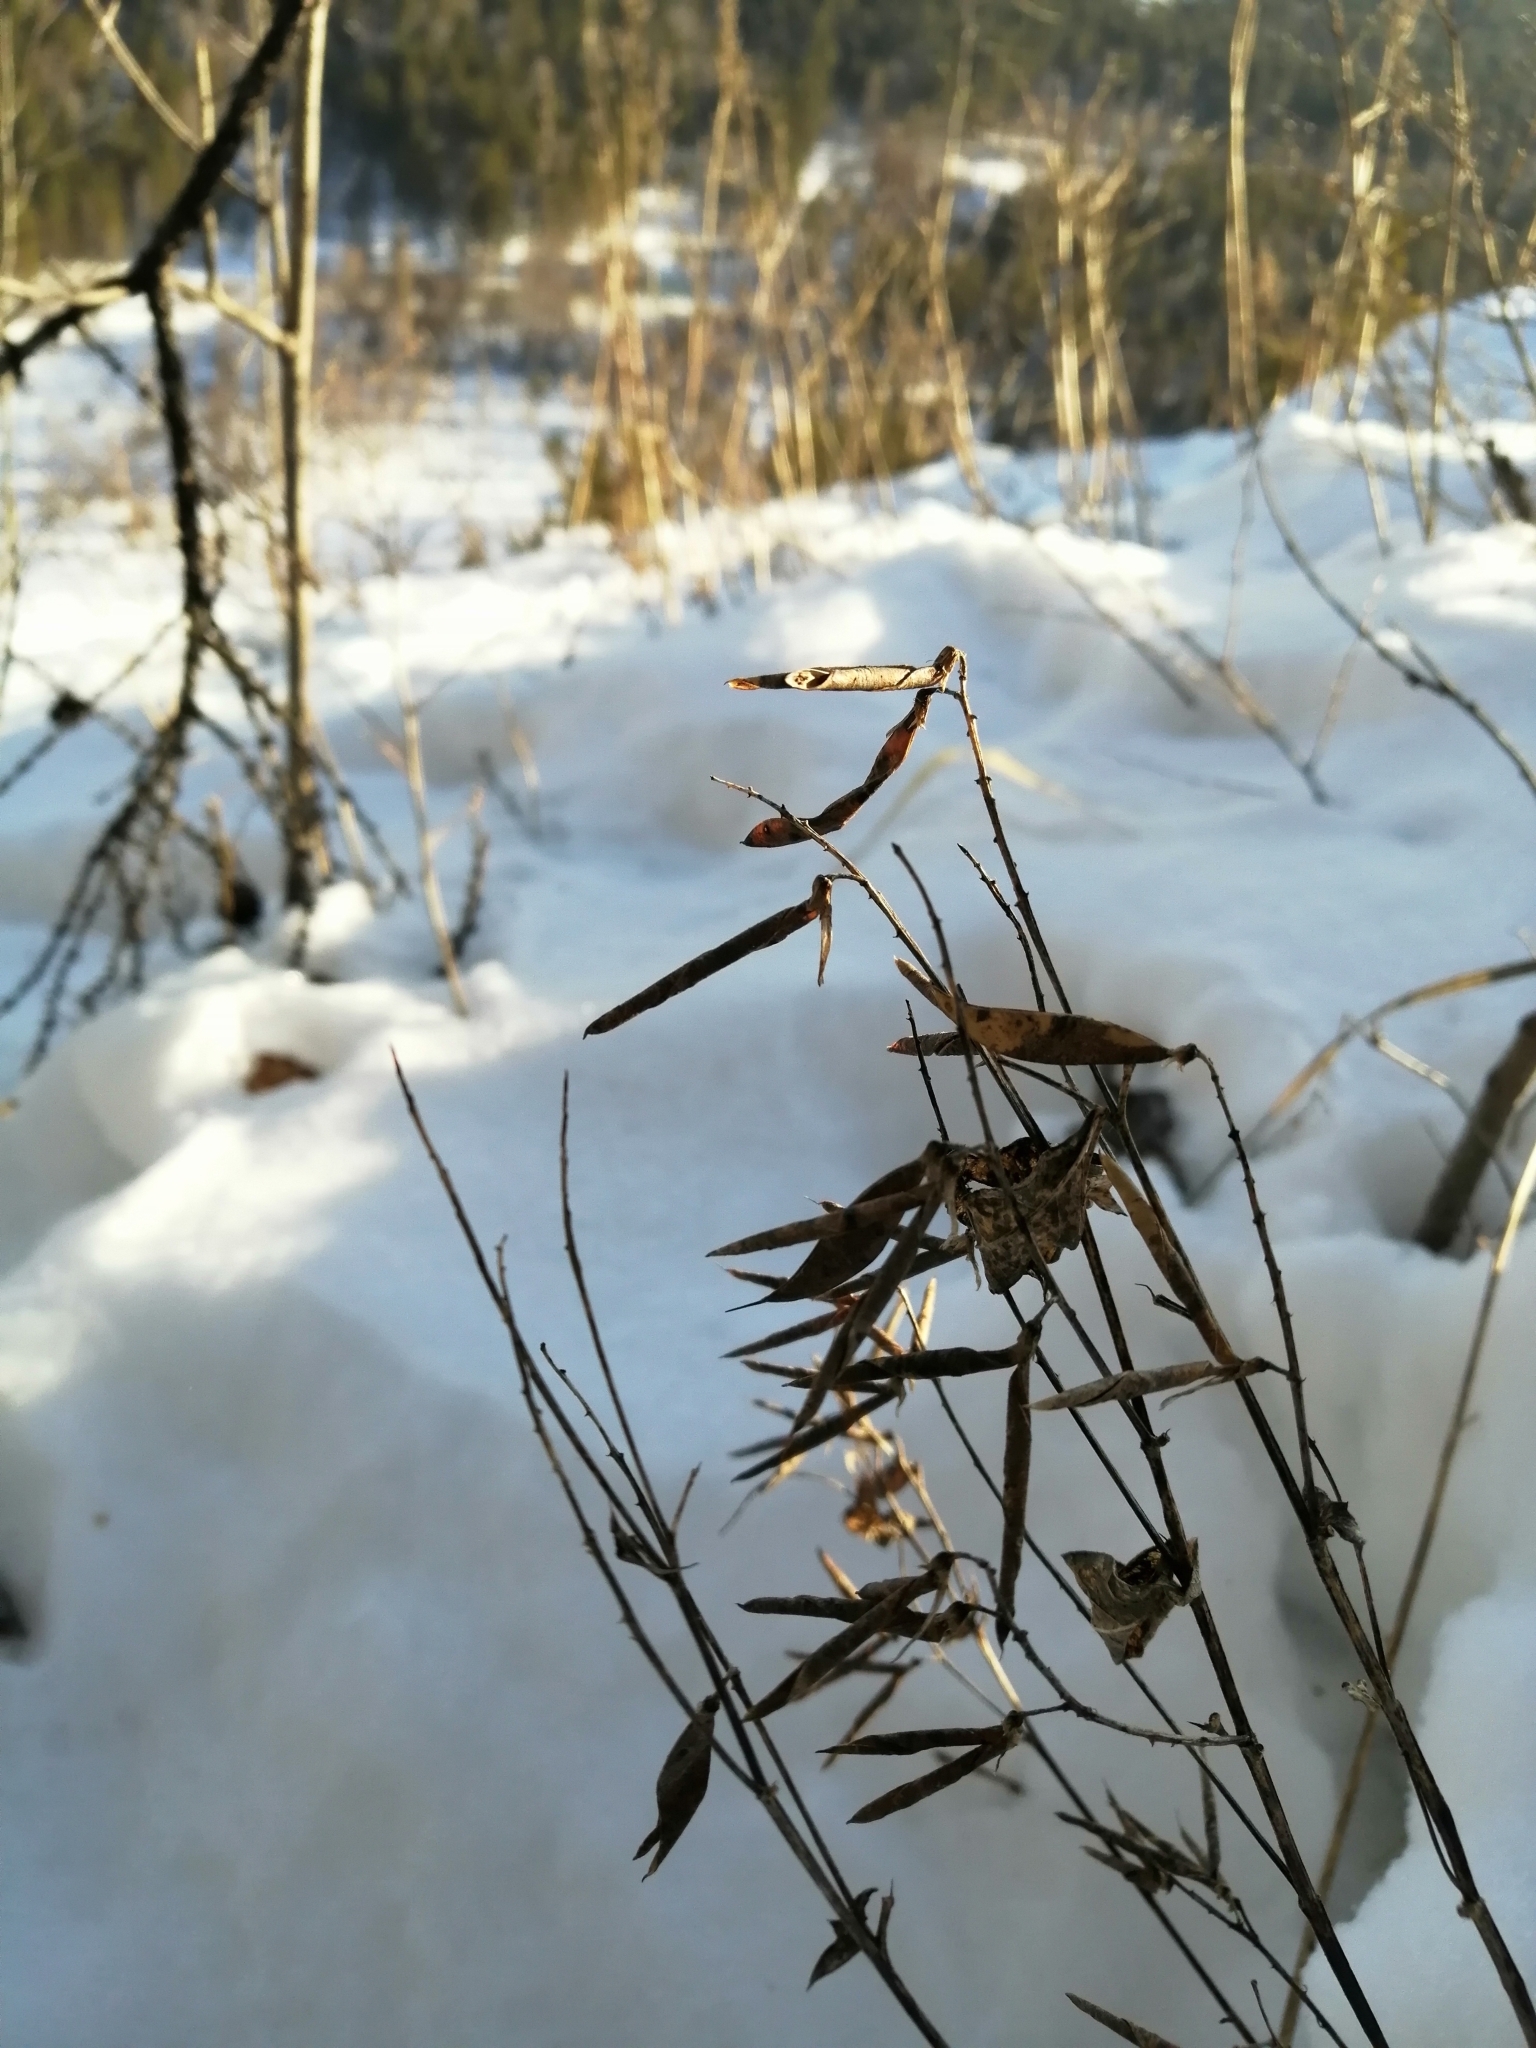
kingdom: Plantae
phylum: Tracheophyta
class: Magnoliopsida
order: Fabales
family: Fabaceae
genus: Vicia
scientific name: Vicia unijuga
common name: Two-leaf vetch
